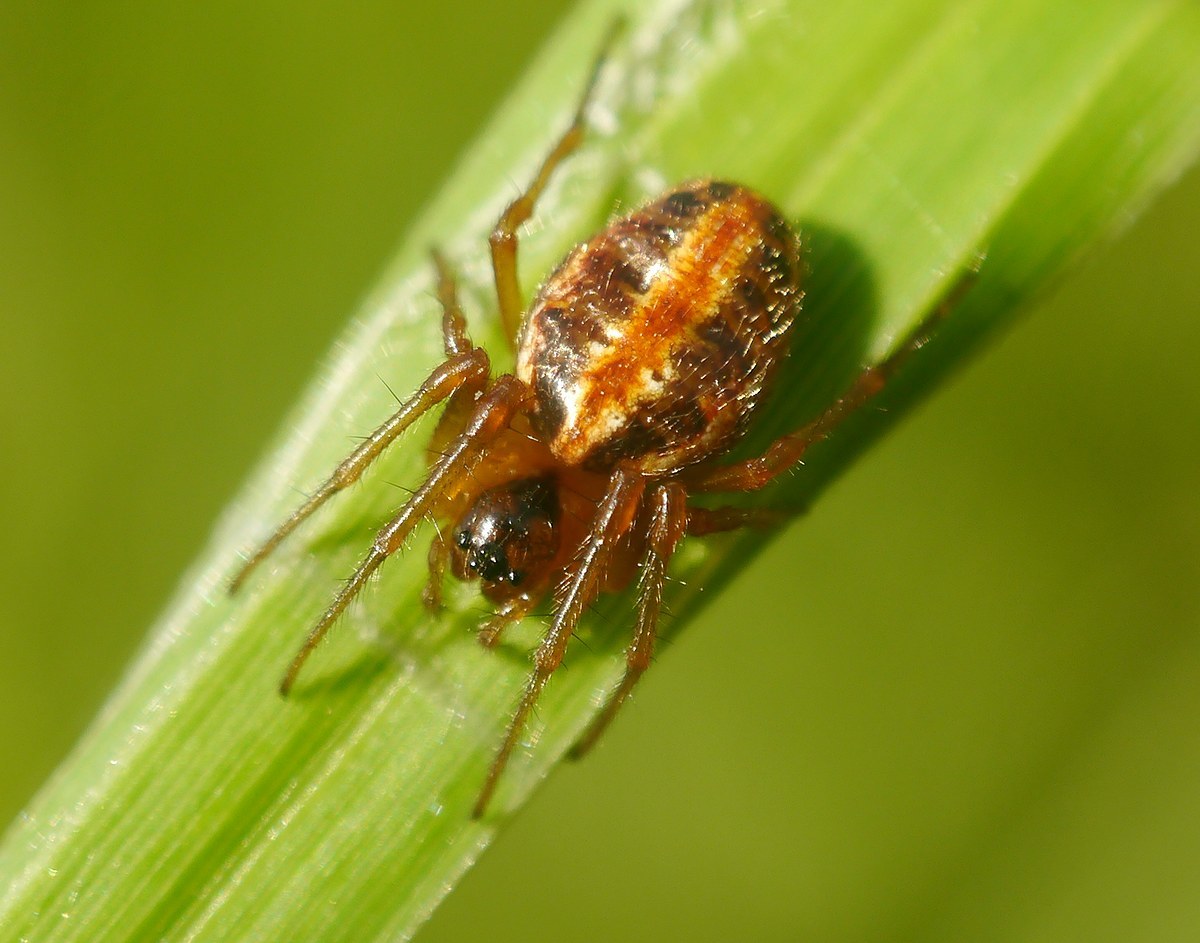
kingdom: Animalia
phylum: Arthropoda
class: Arachnida
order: Araneae
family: Araneidae
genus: Hypsosinga
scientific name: Hypsosinga heri
